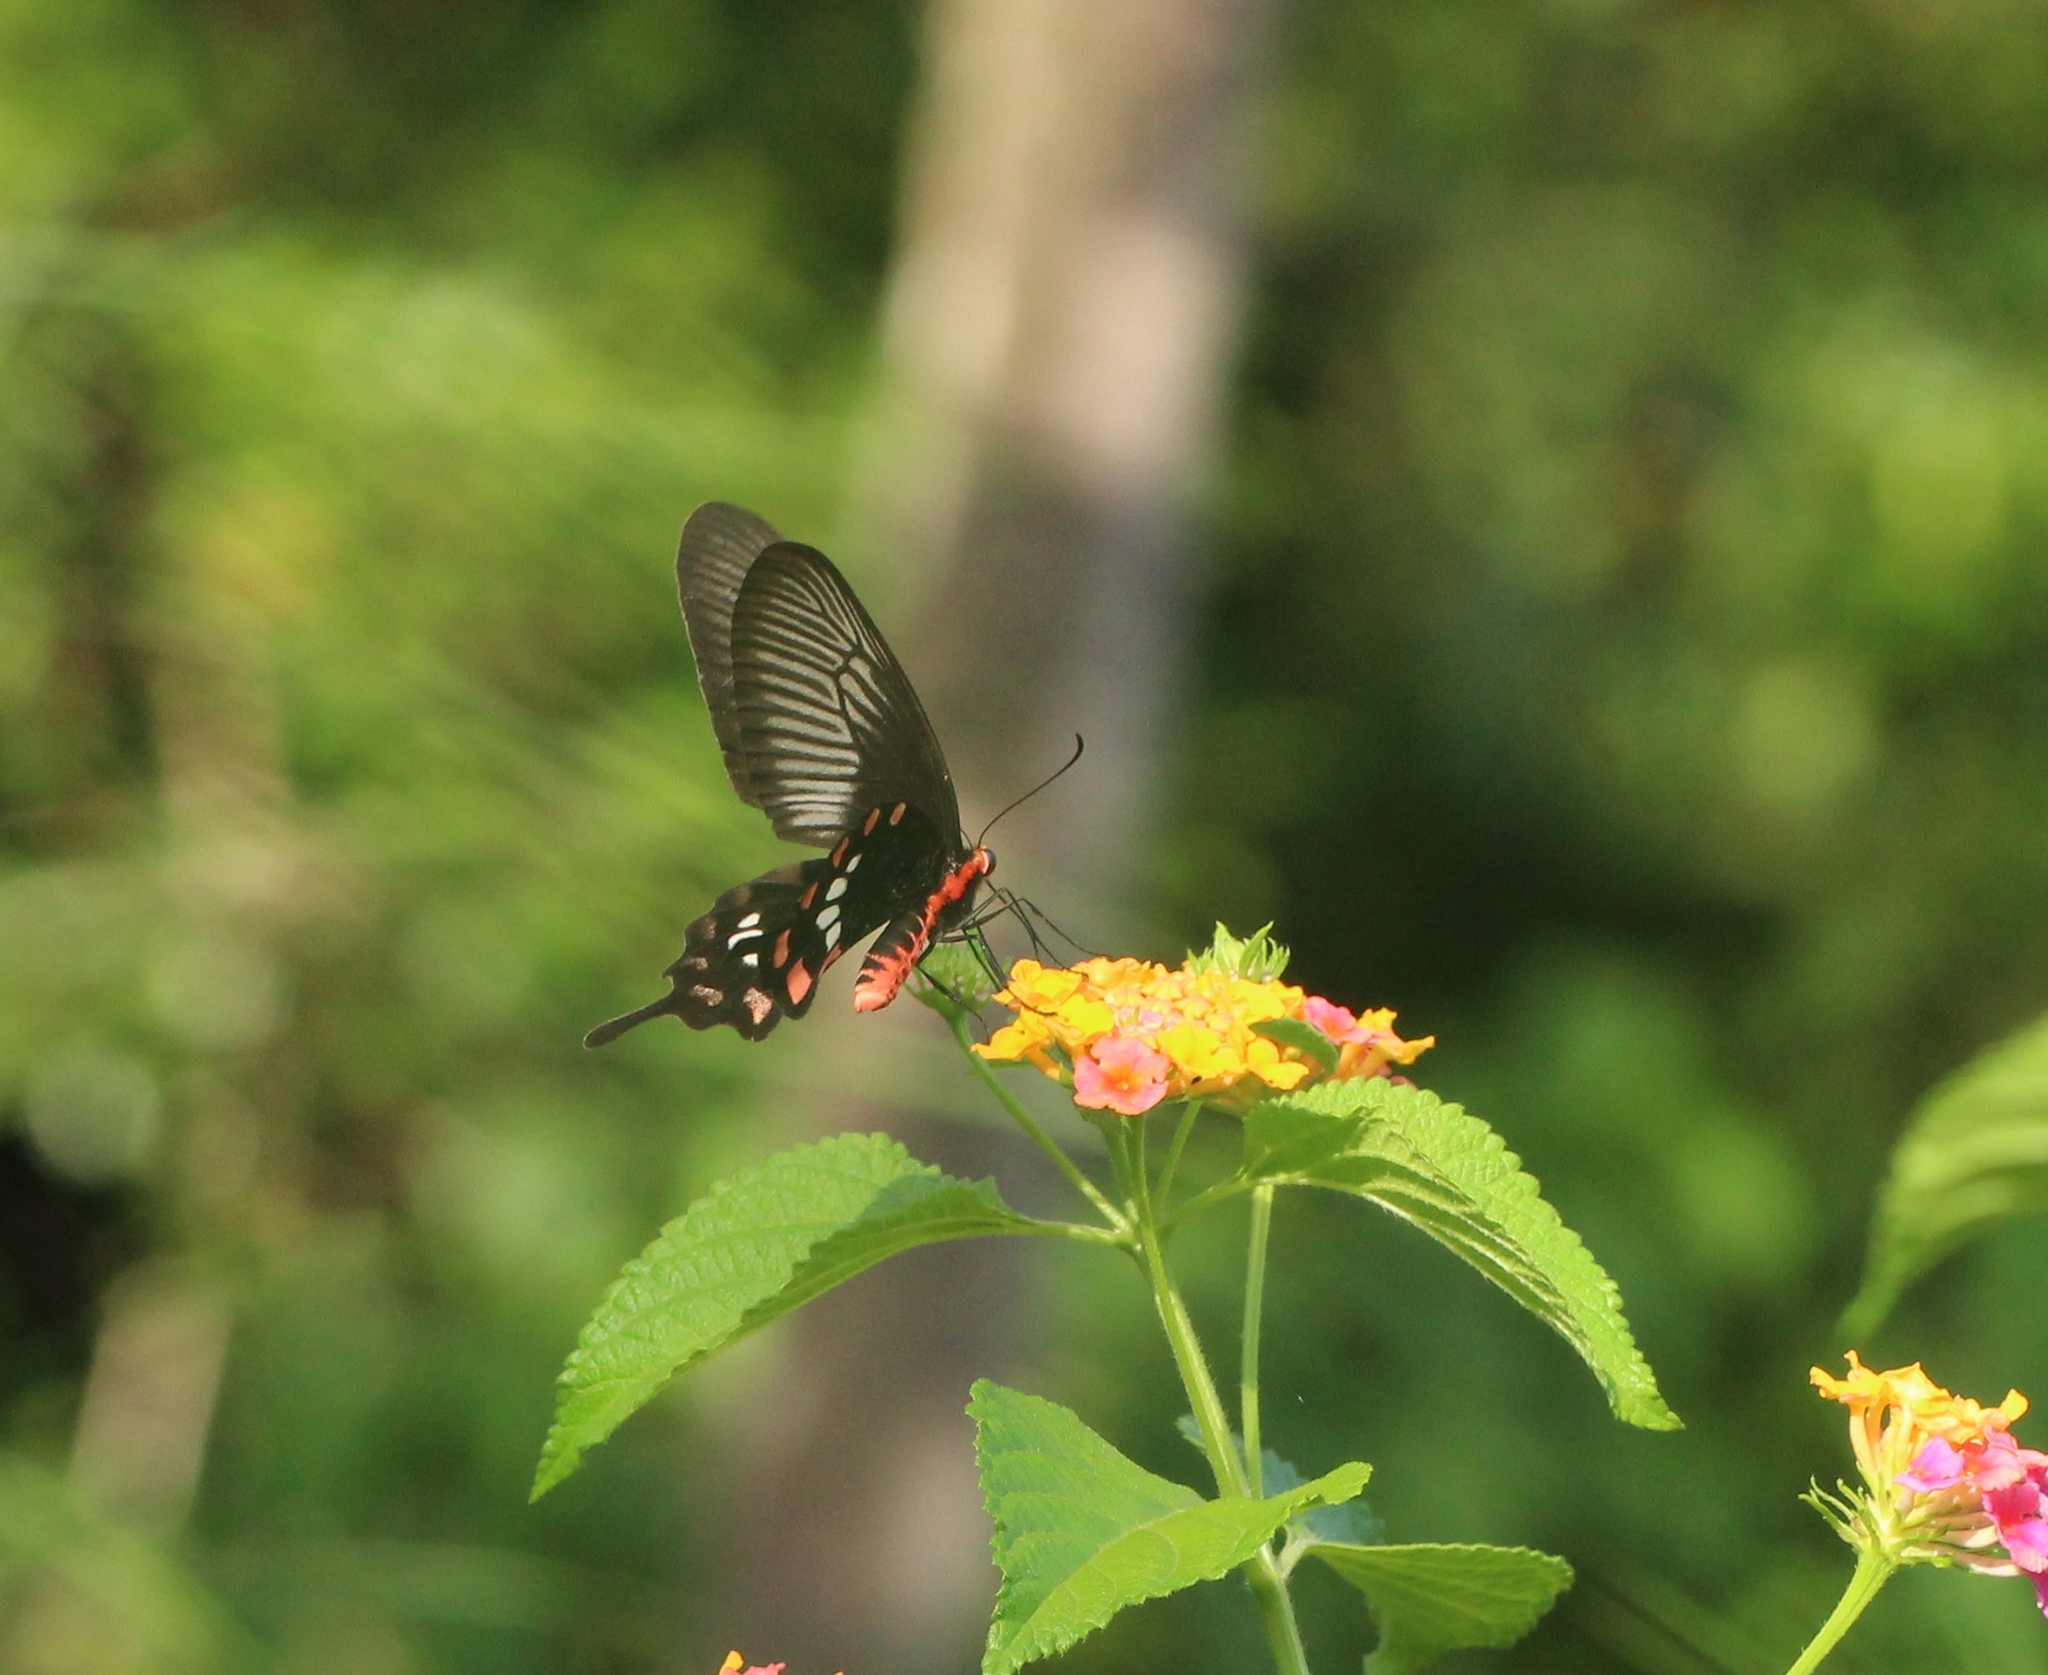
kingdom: Animalia
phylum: Arthropoda
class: Insecta
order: Lepidoptera
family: Papilionidae
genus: Pachliopta
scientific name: Pachliopta aristolochiae
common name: Common rose
